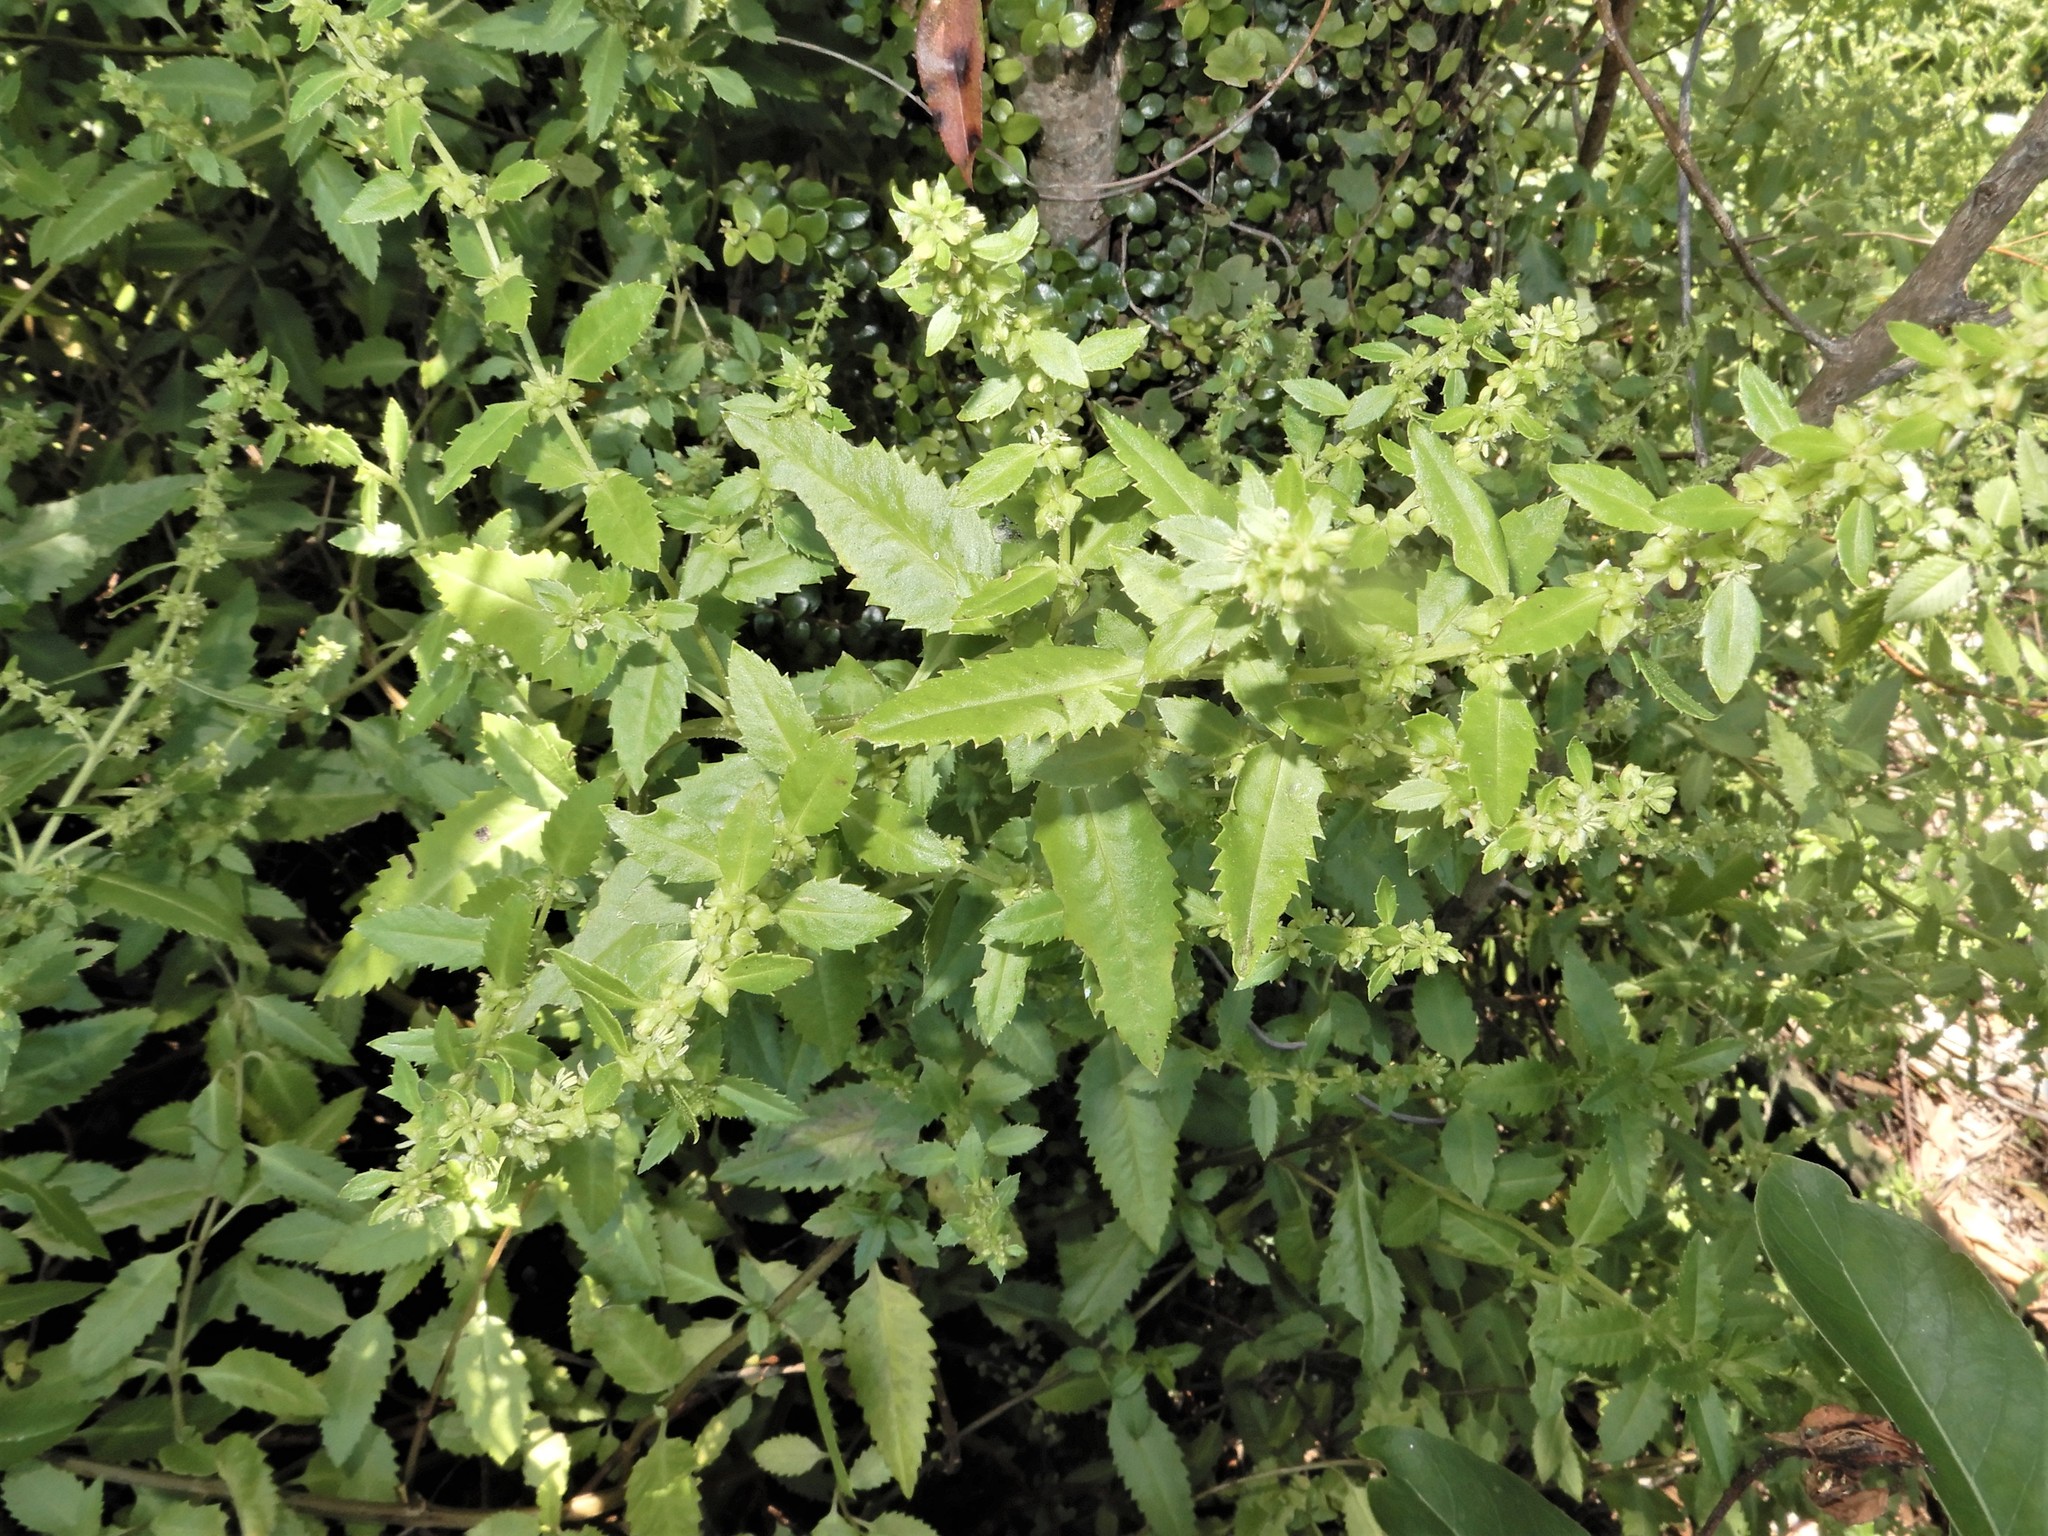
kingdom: Plantae
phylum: Tracheophyta
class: Magnoliopsida
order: Saxifragales
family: Haloragaceae
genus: Haloragis
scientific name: Haloragis erecta
